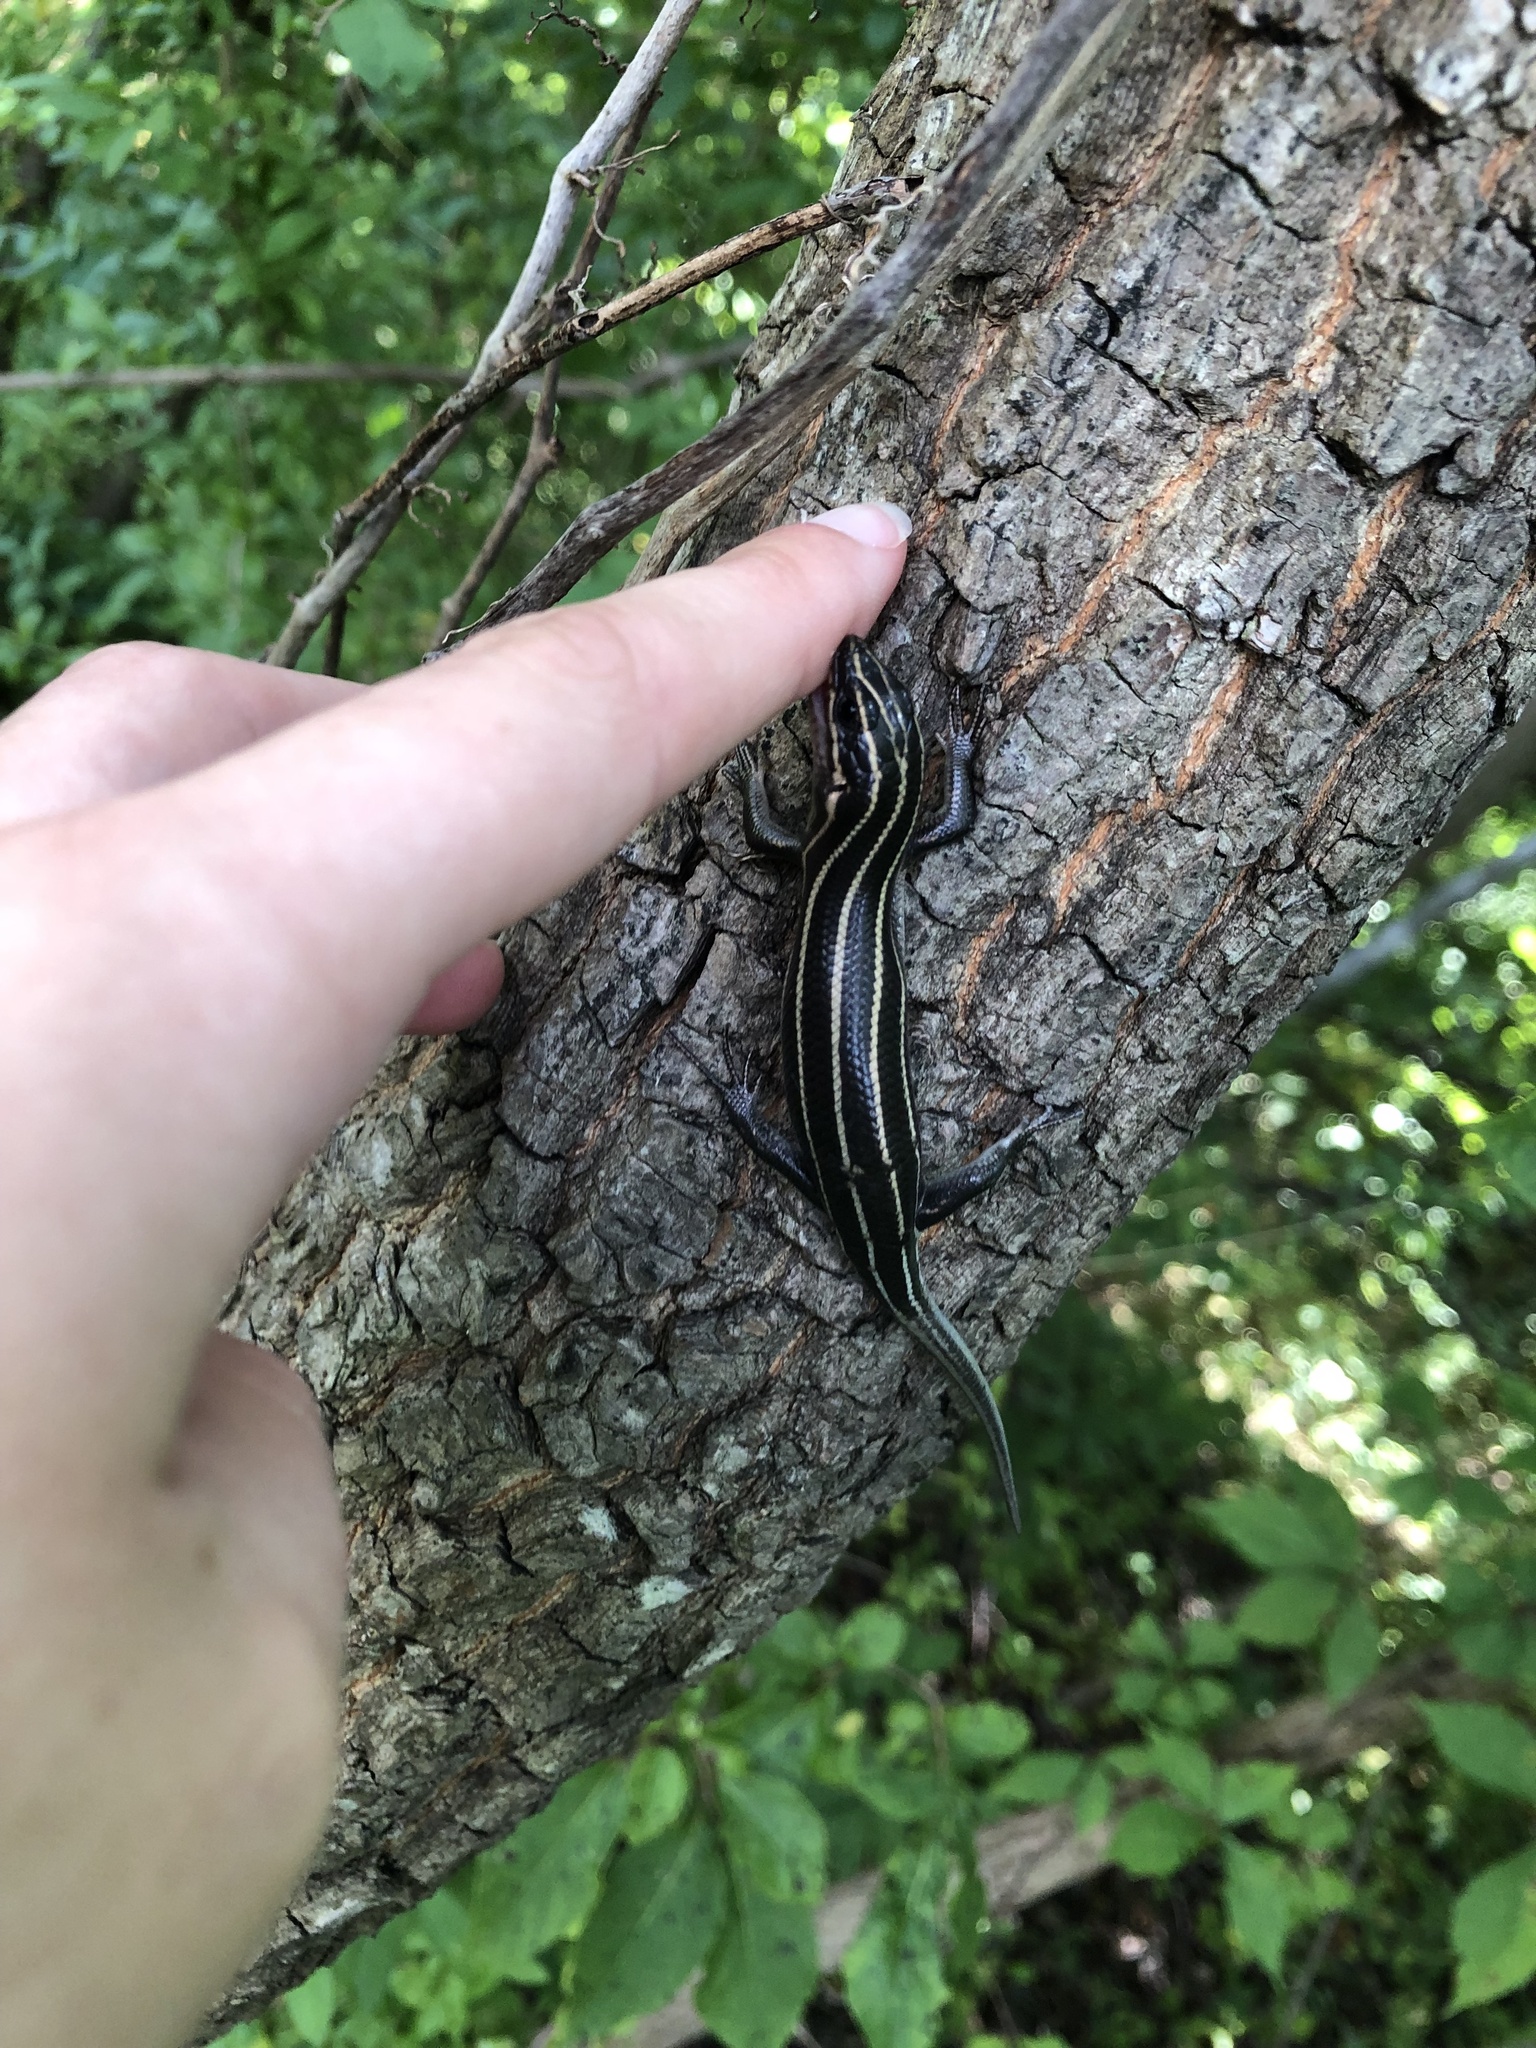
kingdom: Animalia
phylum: Chordata
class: Squamata
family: Scincidae
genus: Plestiodon
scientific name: Plestiodon fasciatus
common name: Five-lined skink
